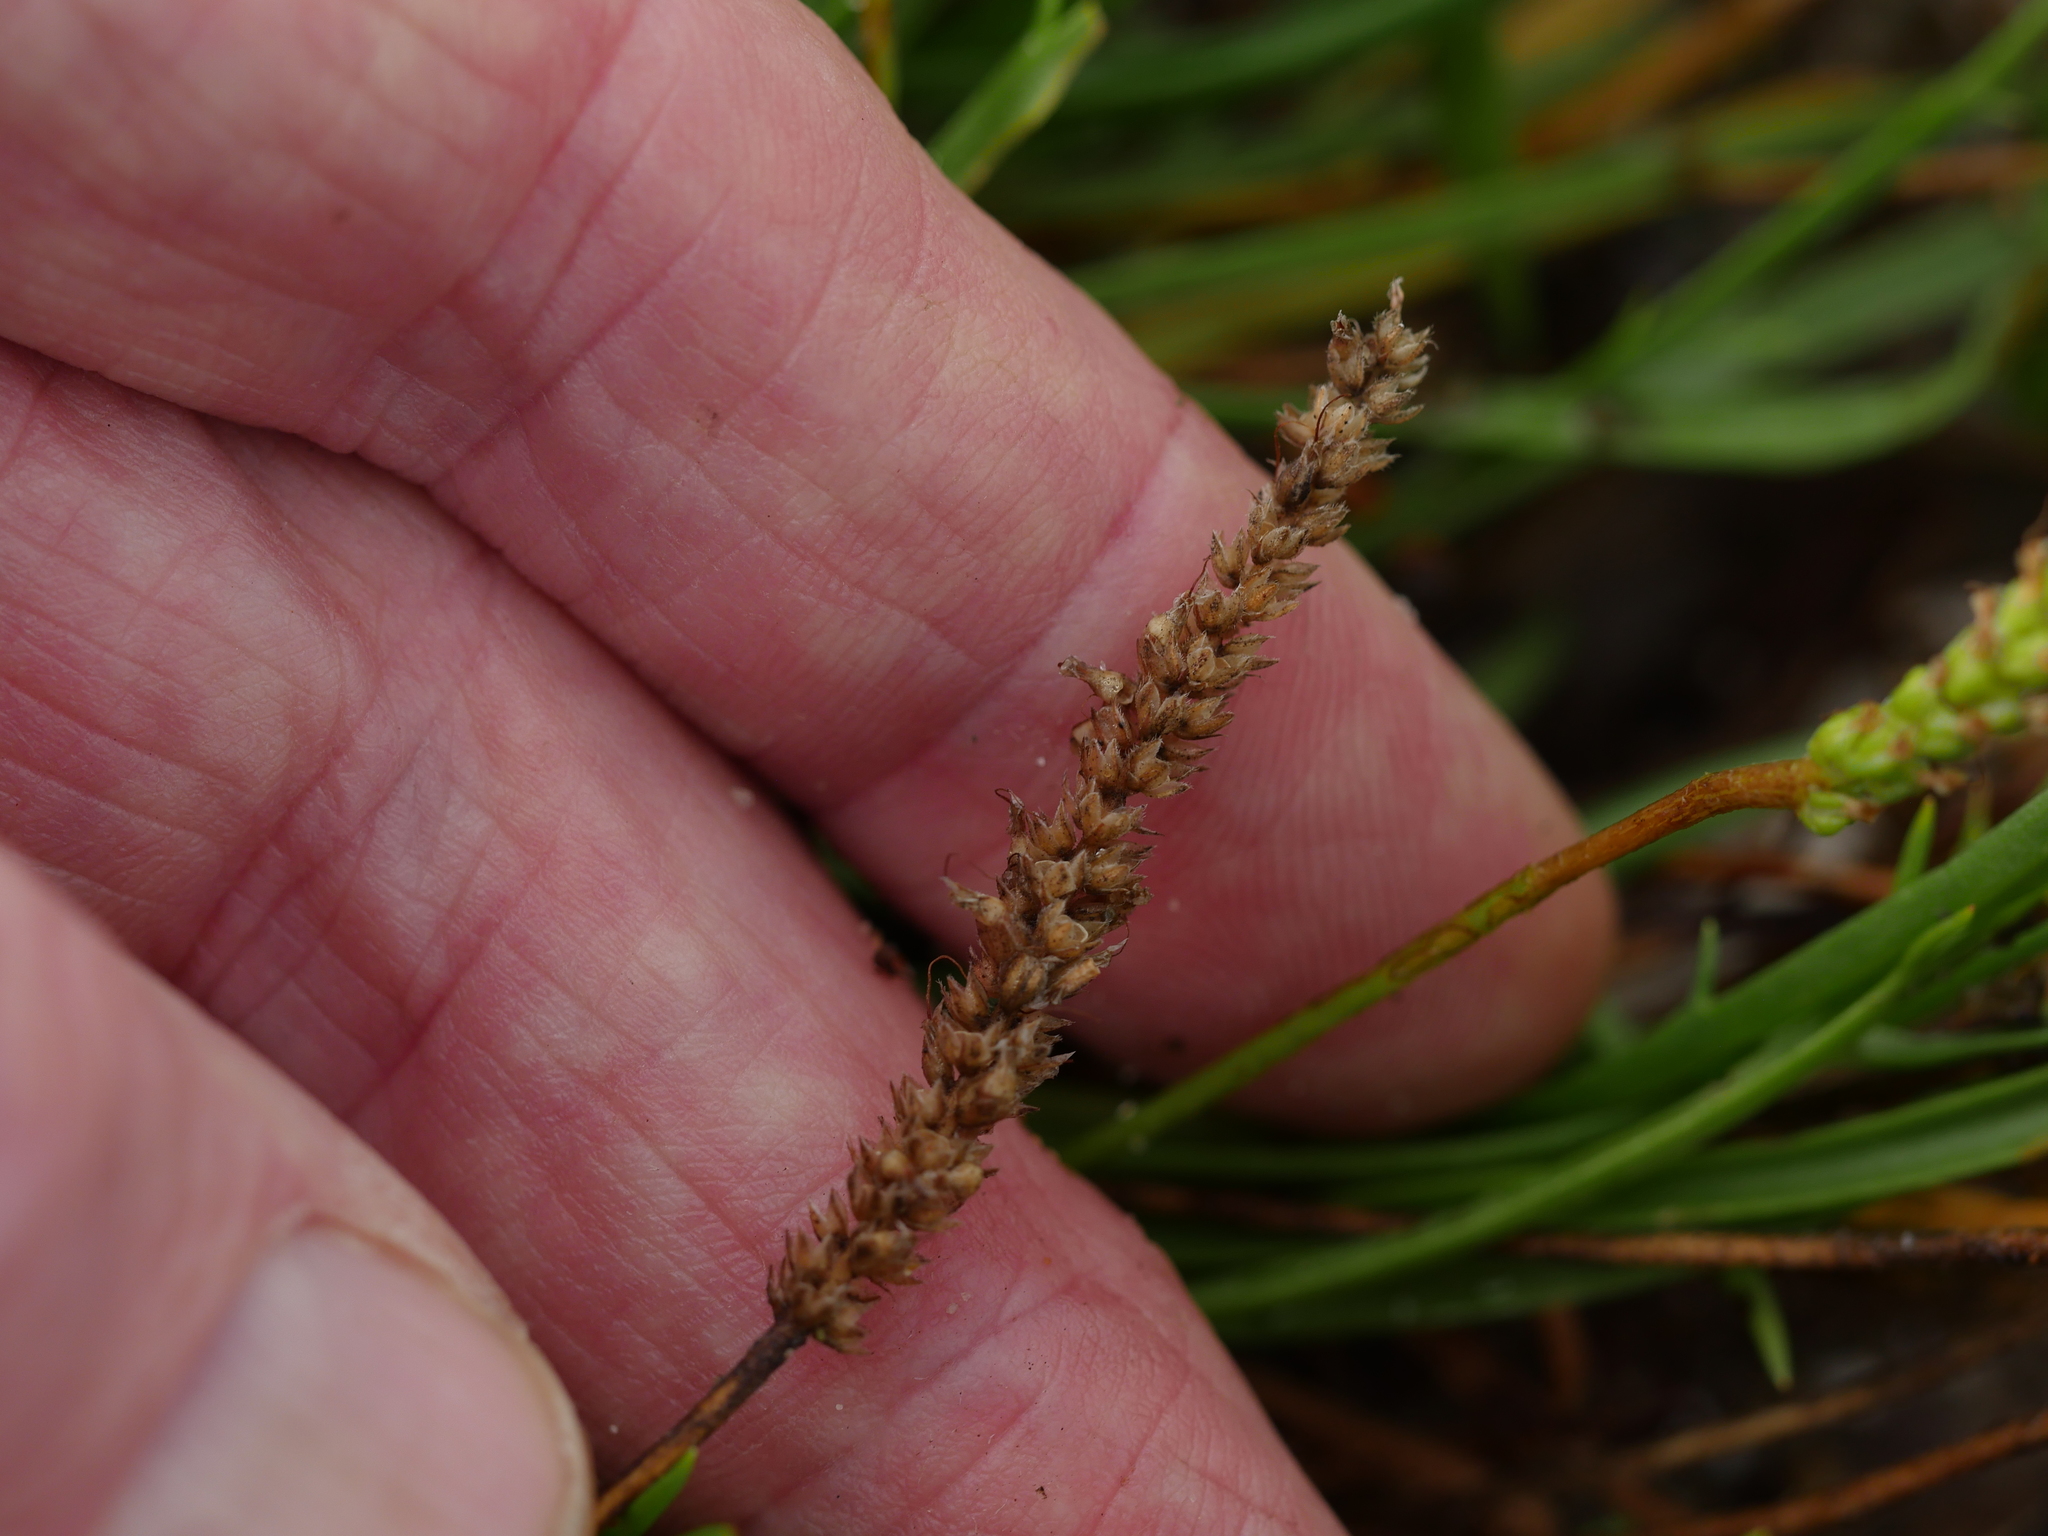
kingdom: Plantae
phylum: Tracheophyta
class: Magnoliopsida
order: Lamiales
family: Plantaginaceae
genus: Plantago
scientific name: Plantago coronopus
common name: Buck's-horn plantain
